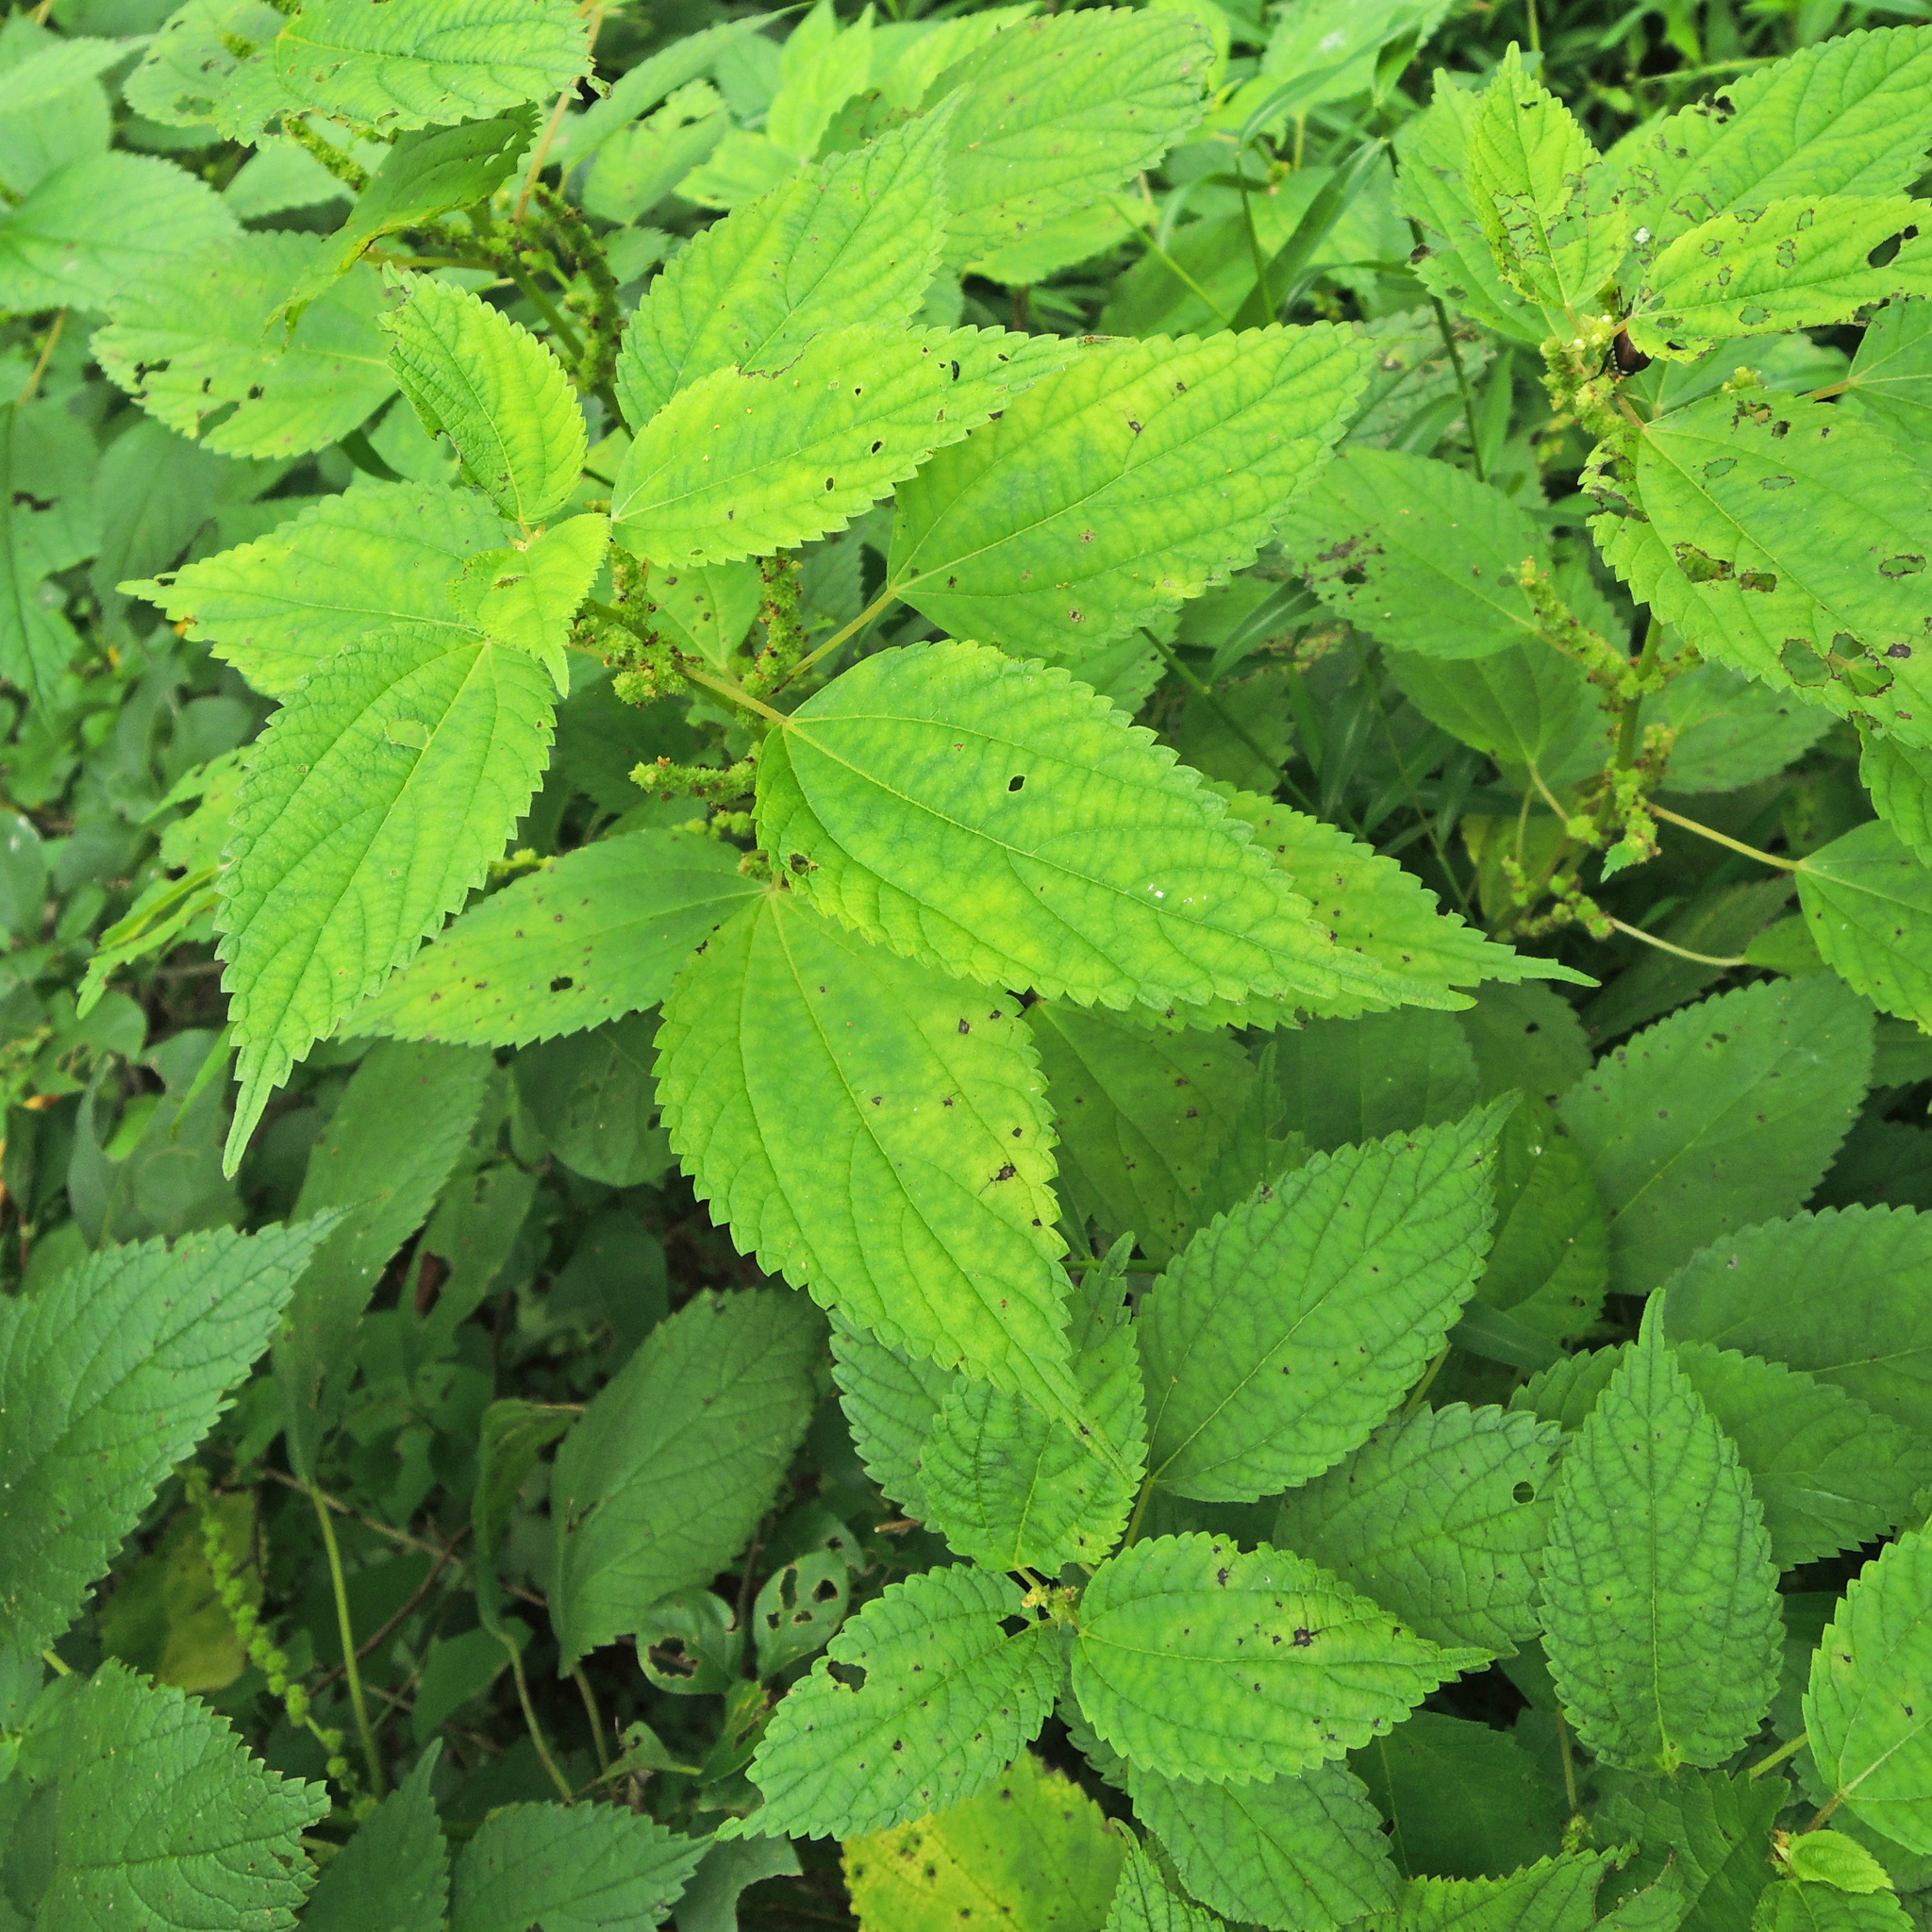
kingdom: Plantae
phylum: Tracheophyta
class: Magnoliopsida
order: Rosales
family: Urticaceae
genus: Boehmeria
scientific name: Boehmeria cylindrica
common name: Bog-hemp
